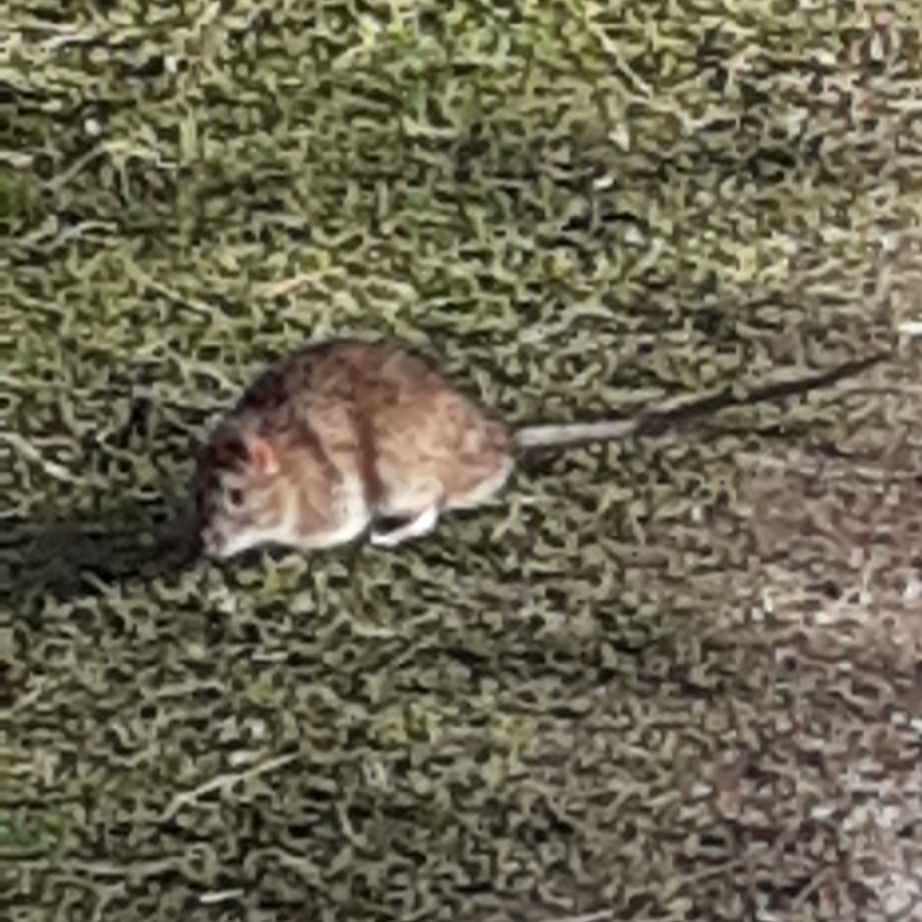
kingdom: Animalia
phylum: Chordata
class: Mammalia
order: Rodentia
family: Muridae
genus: Rattus
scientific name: Rattus norvegicus
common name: Brown rat
